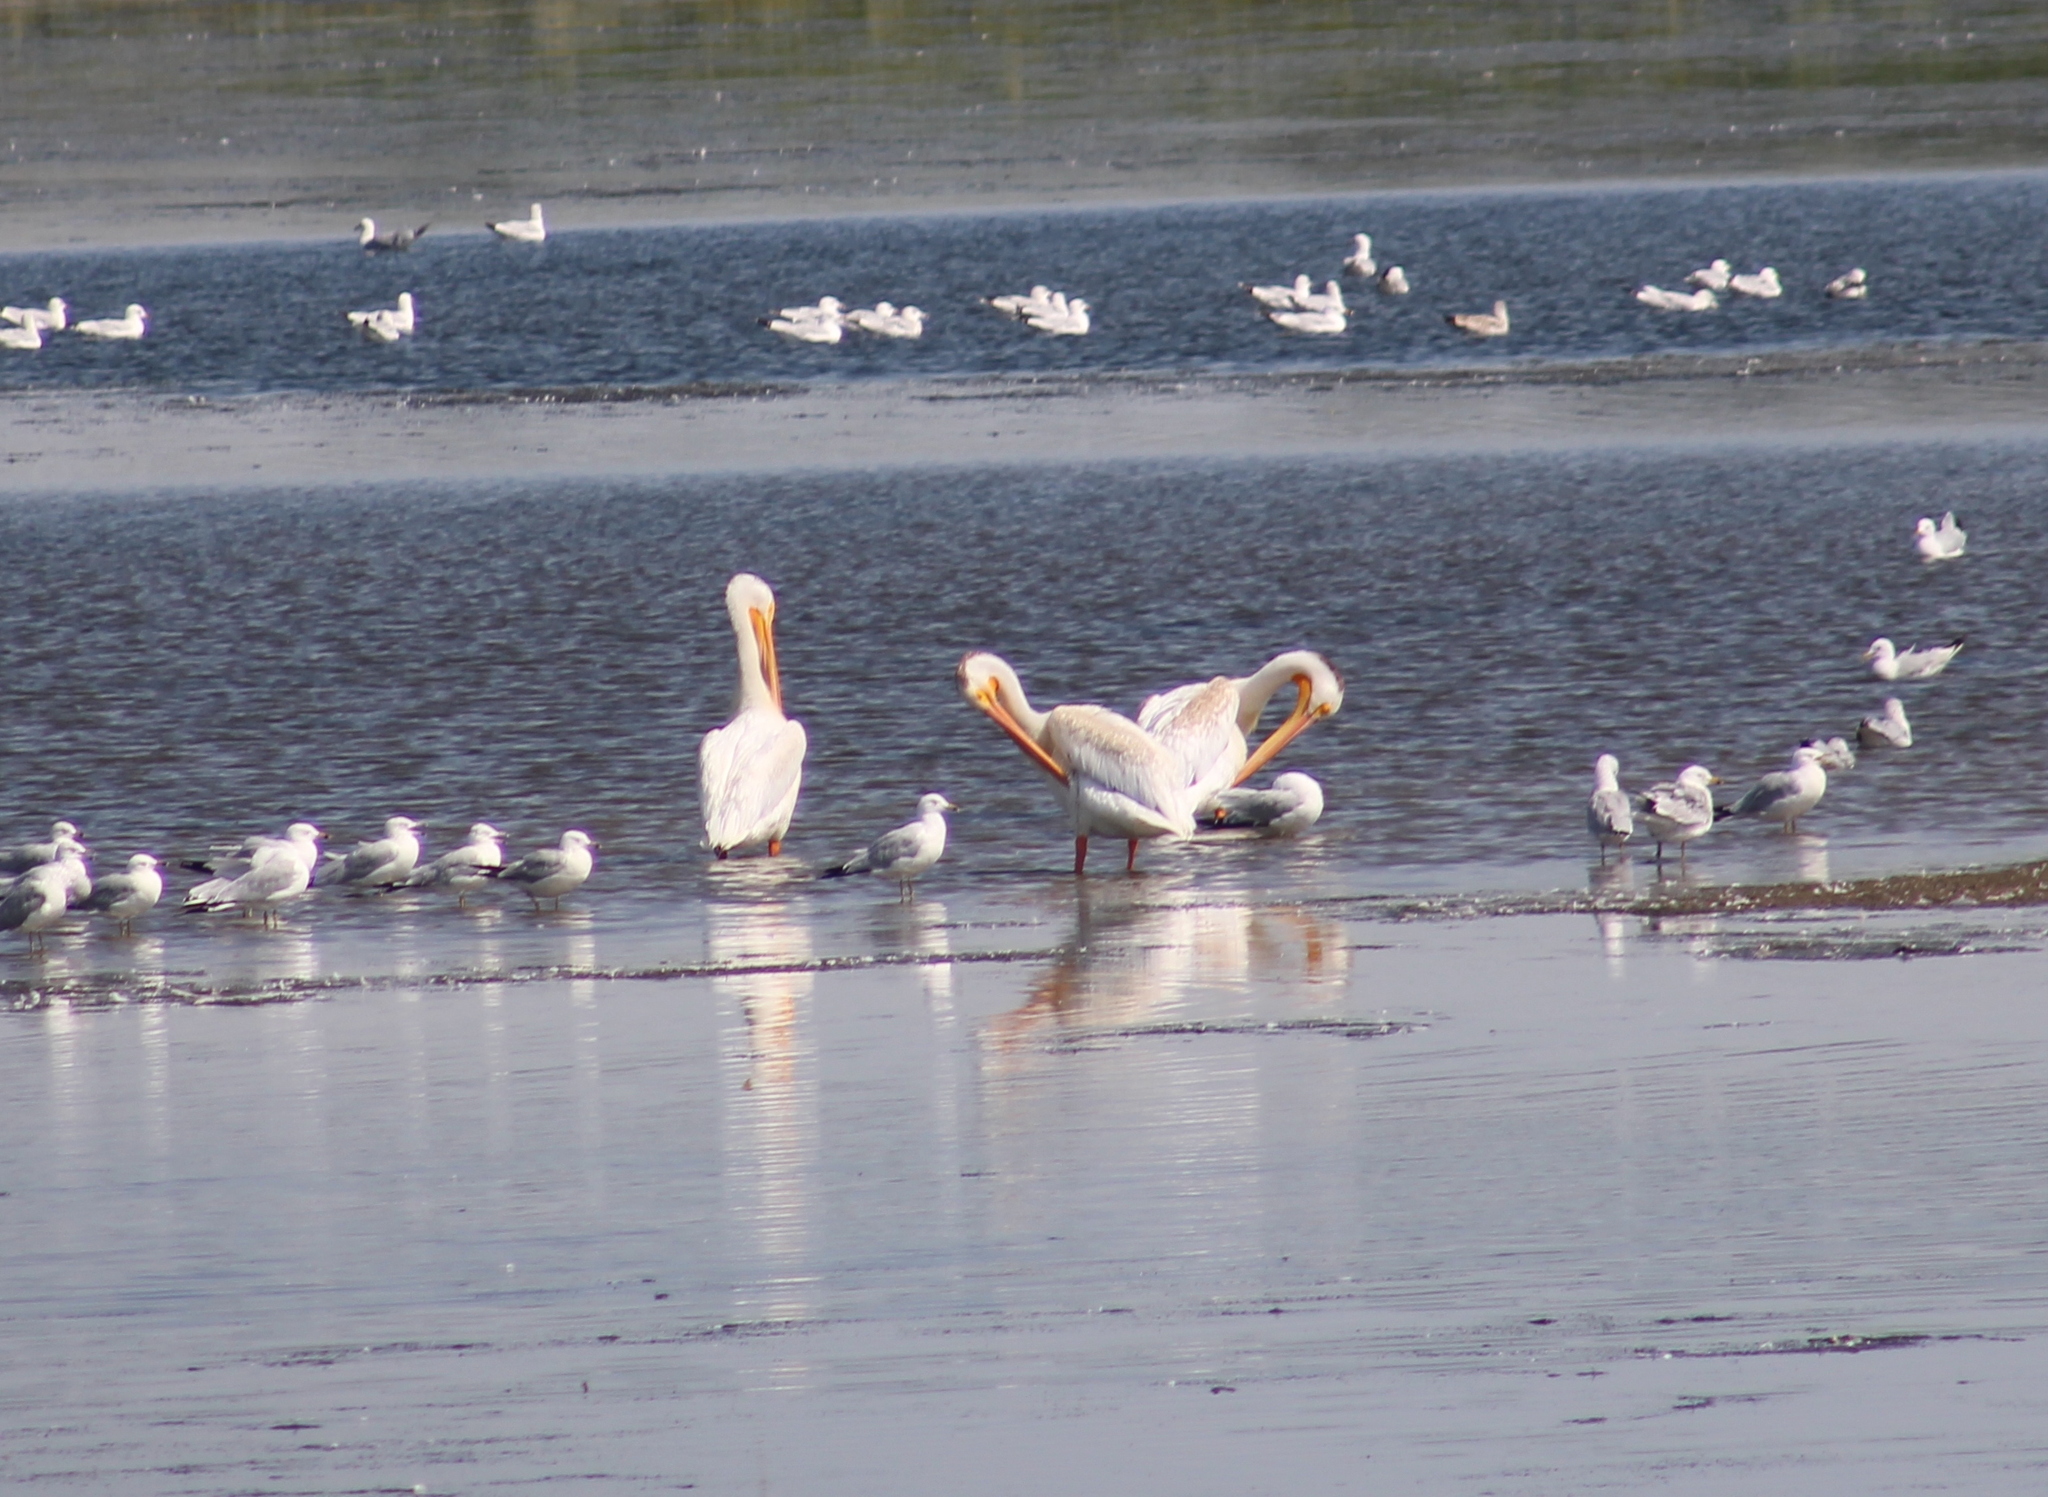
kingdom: Animalia
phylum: Chordata
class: Aves
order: Pelecaniformes
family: Pelecanidae
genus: Pelecanus
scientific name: Pelecanus erythrorhynchos
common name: American white pelican
